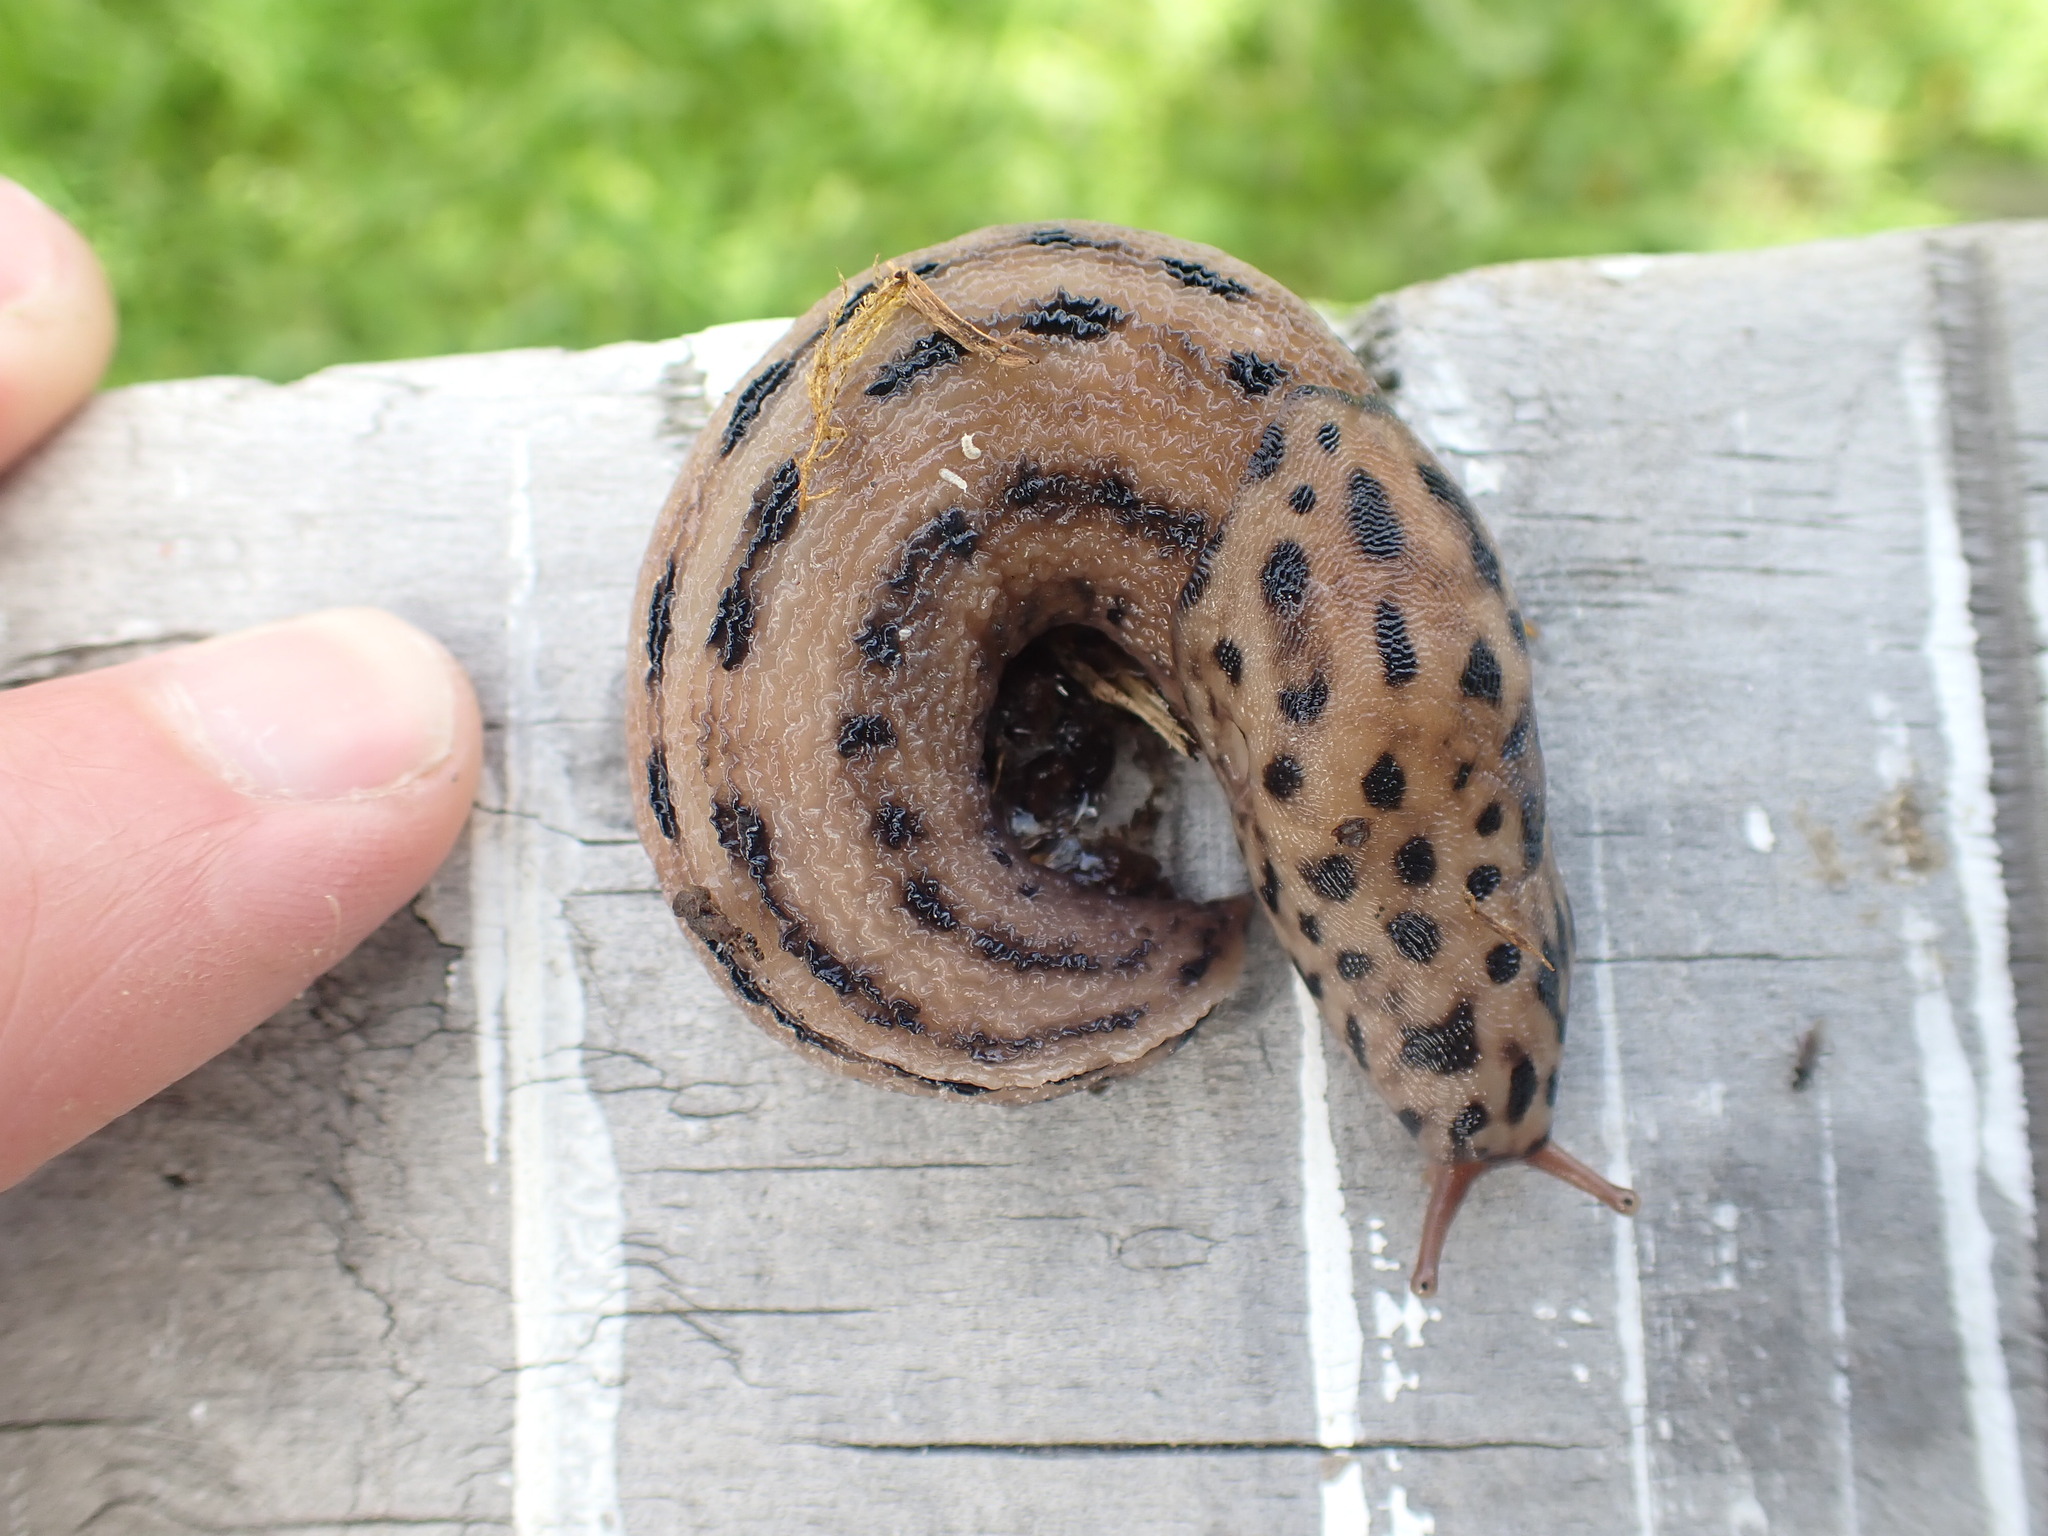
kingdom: Animalia
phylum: Mollusca
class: Gastropoda
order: Stylommatophora
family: Limacidae
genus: Limax
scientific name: Limax maximus
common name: Great grey slug
